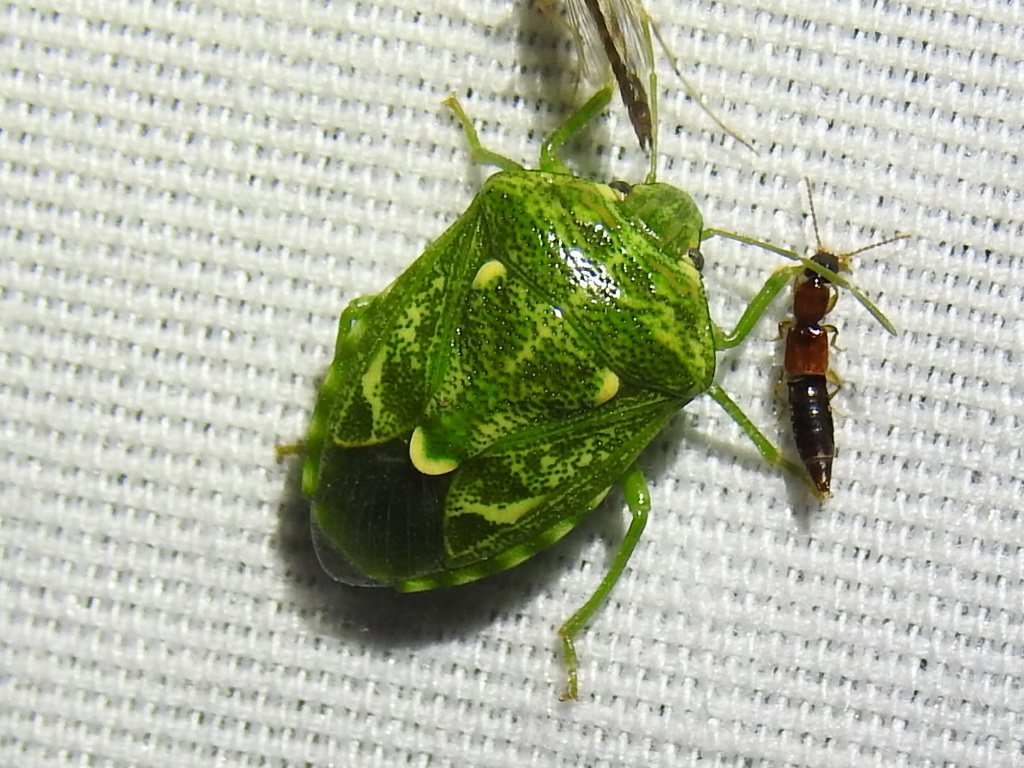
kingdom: Animalia
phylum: Arthropoda
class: Insecta
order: Hemiptera
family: Pentatomidae
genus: Banasa
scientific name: Banasa euchlora
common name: Cedar berry bug
